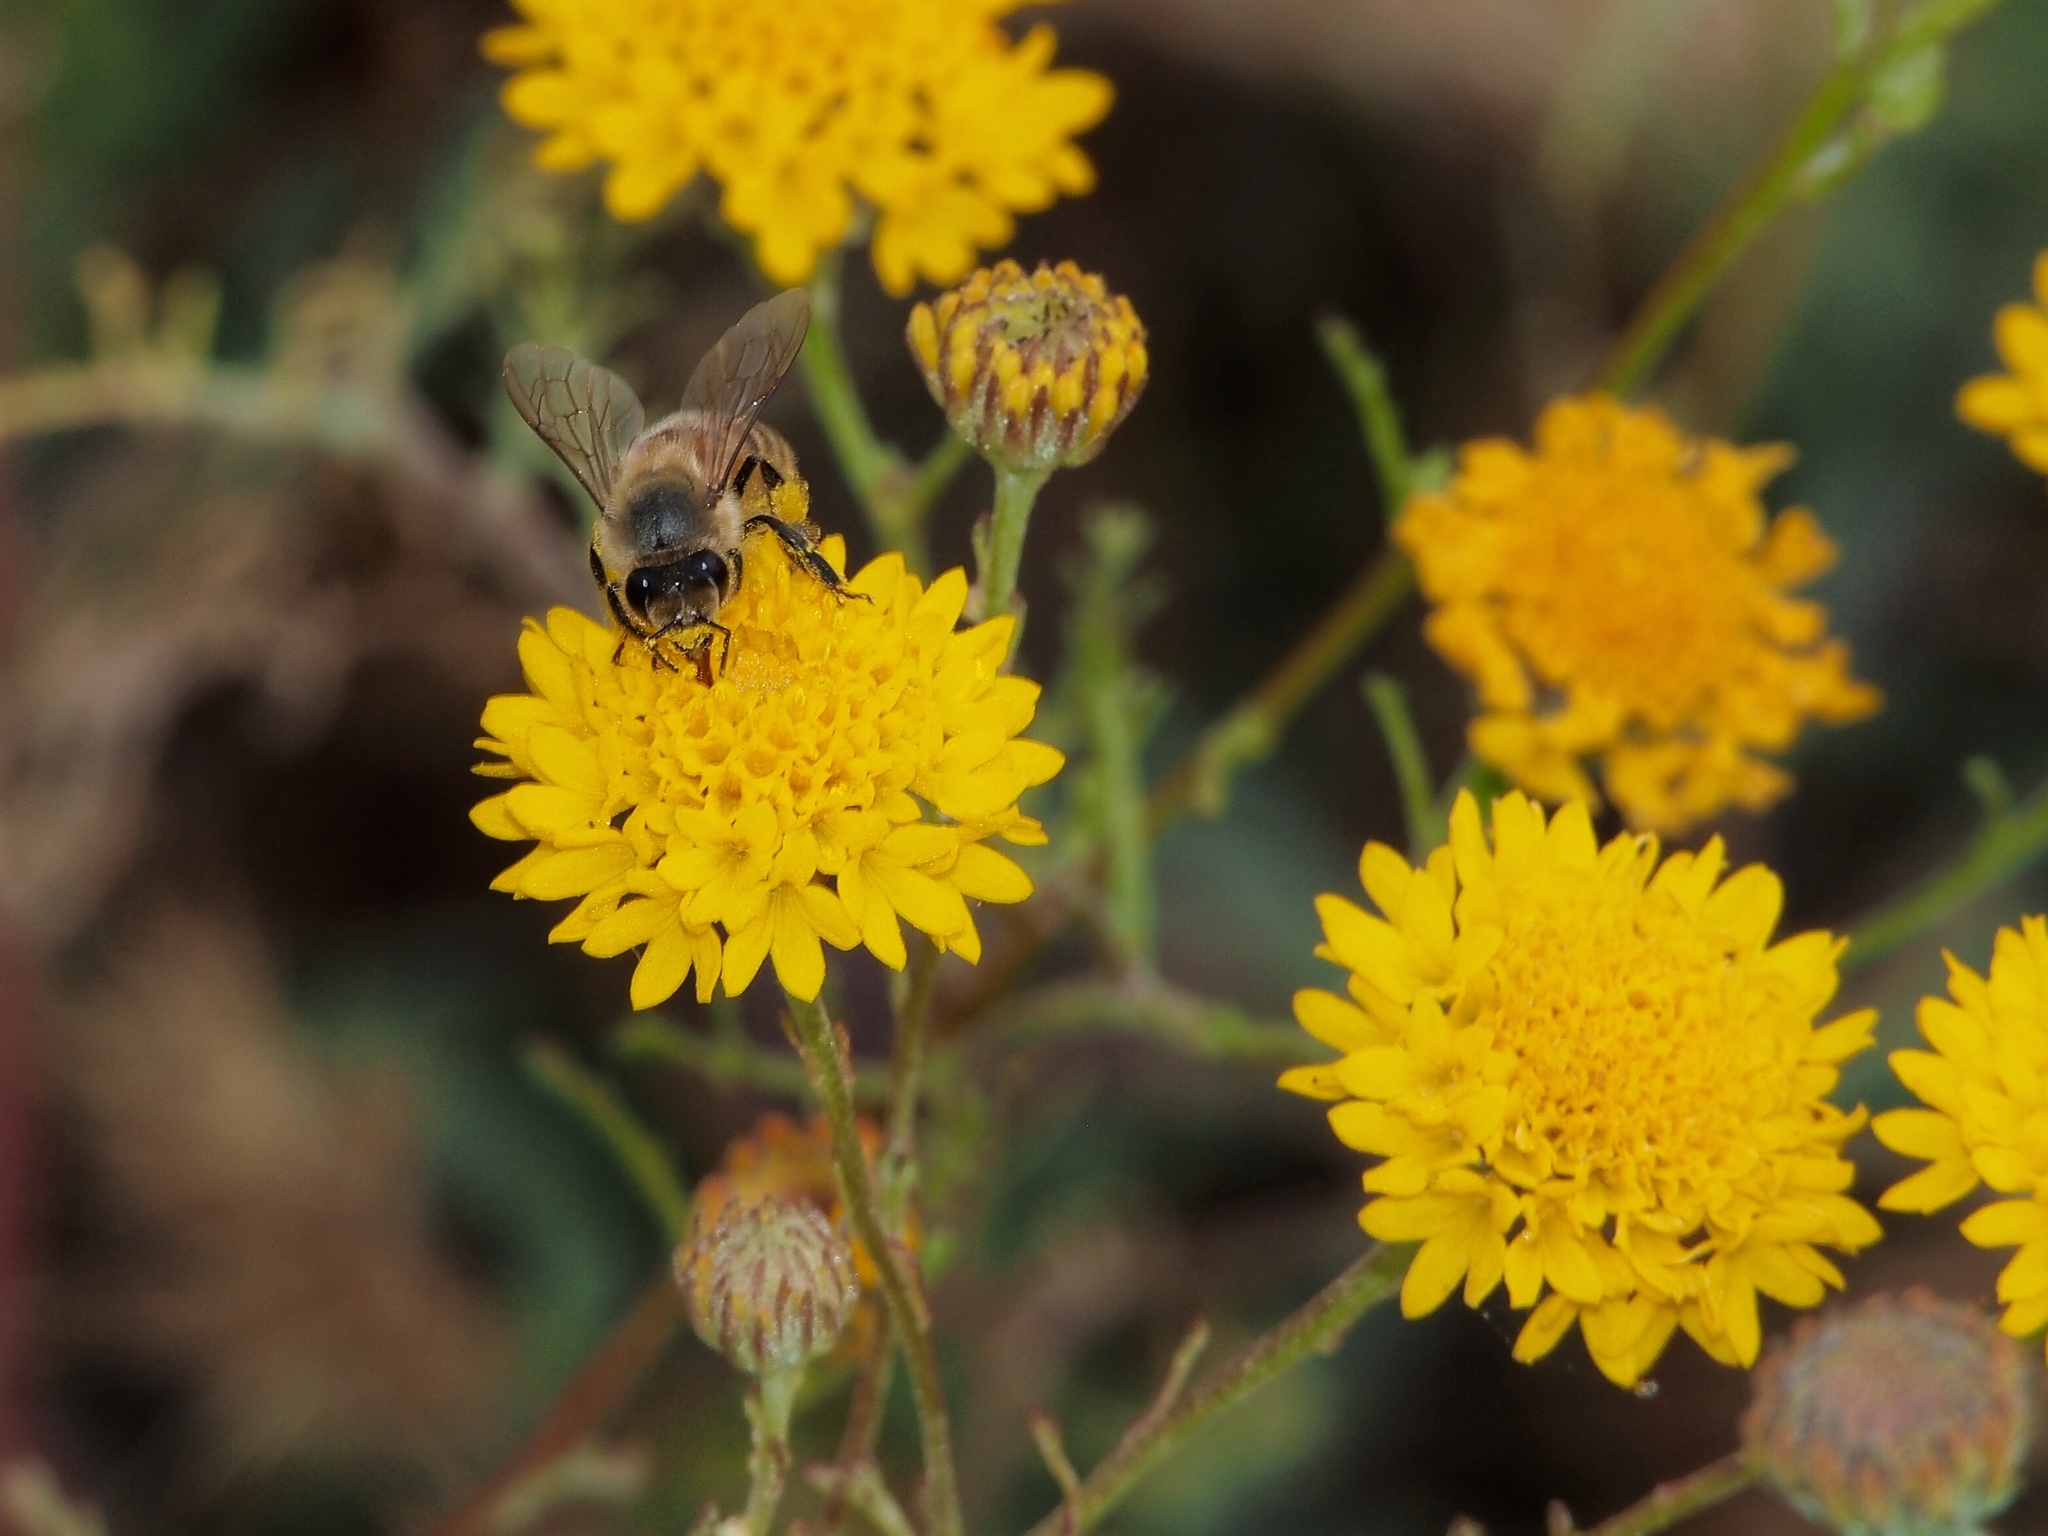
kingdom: Animalia
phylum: Arthropoda
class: Insecta
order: Hymenoptera
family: Apidae
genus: Apis
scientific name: Apis mellifera
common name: Honey bee
